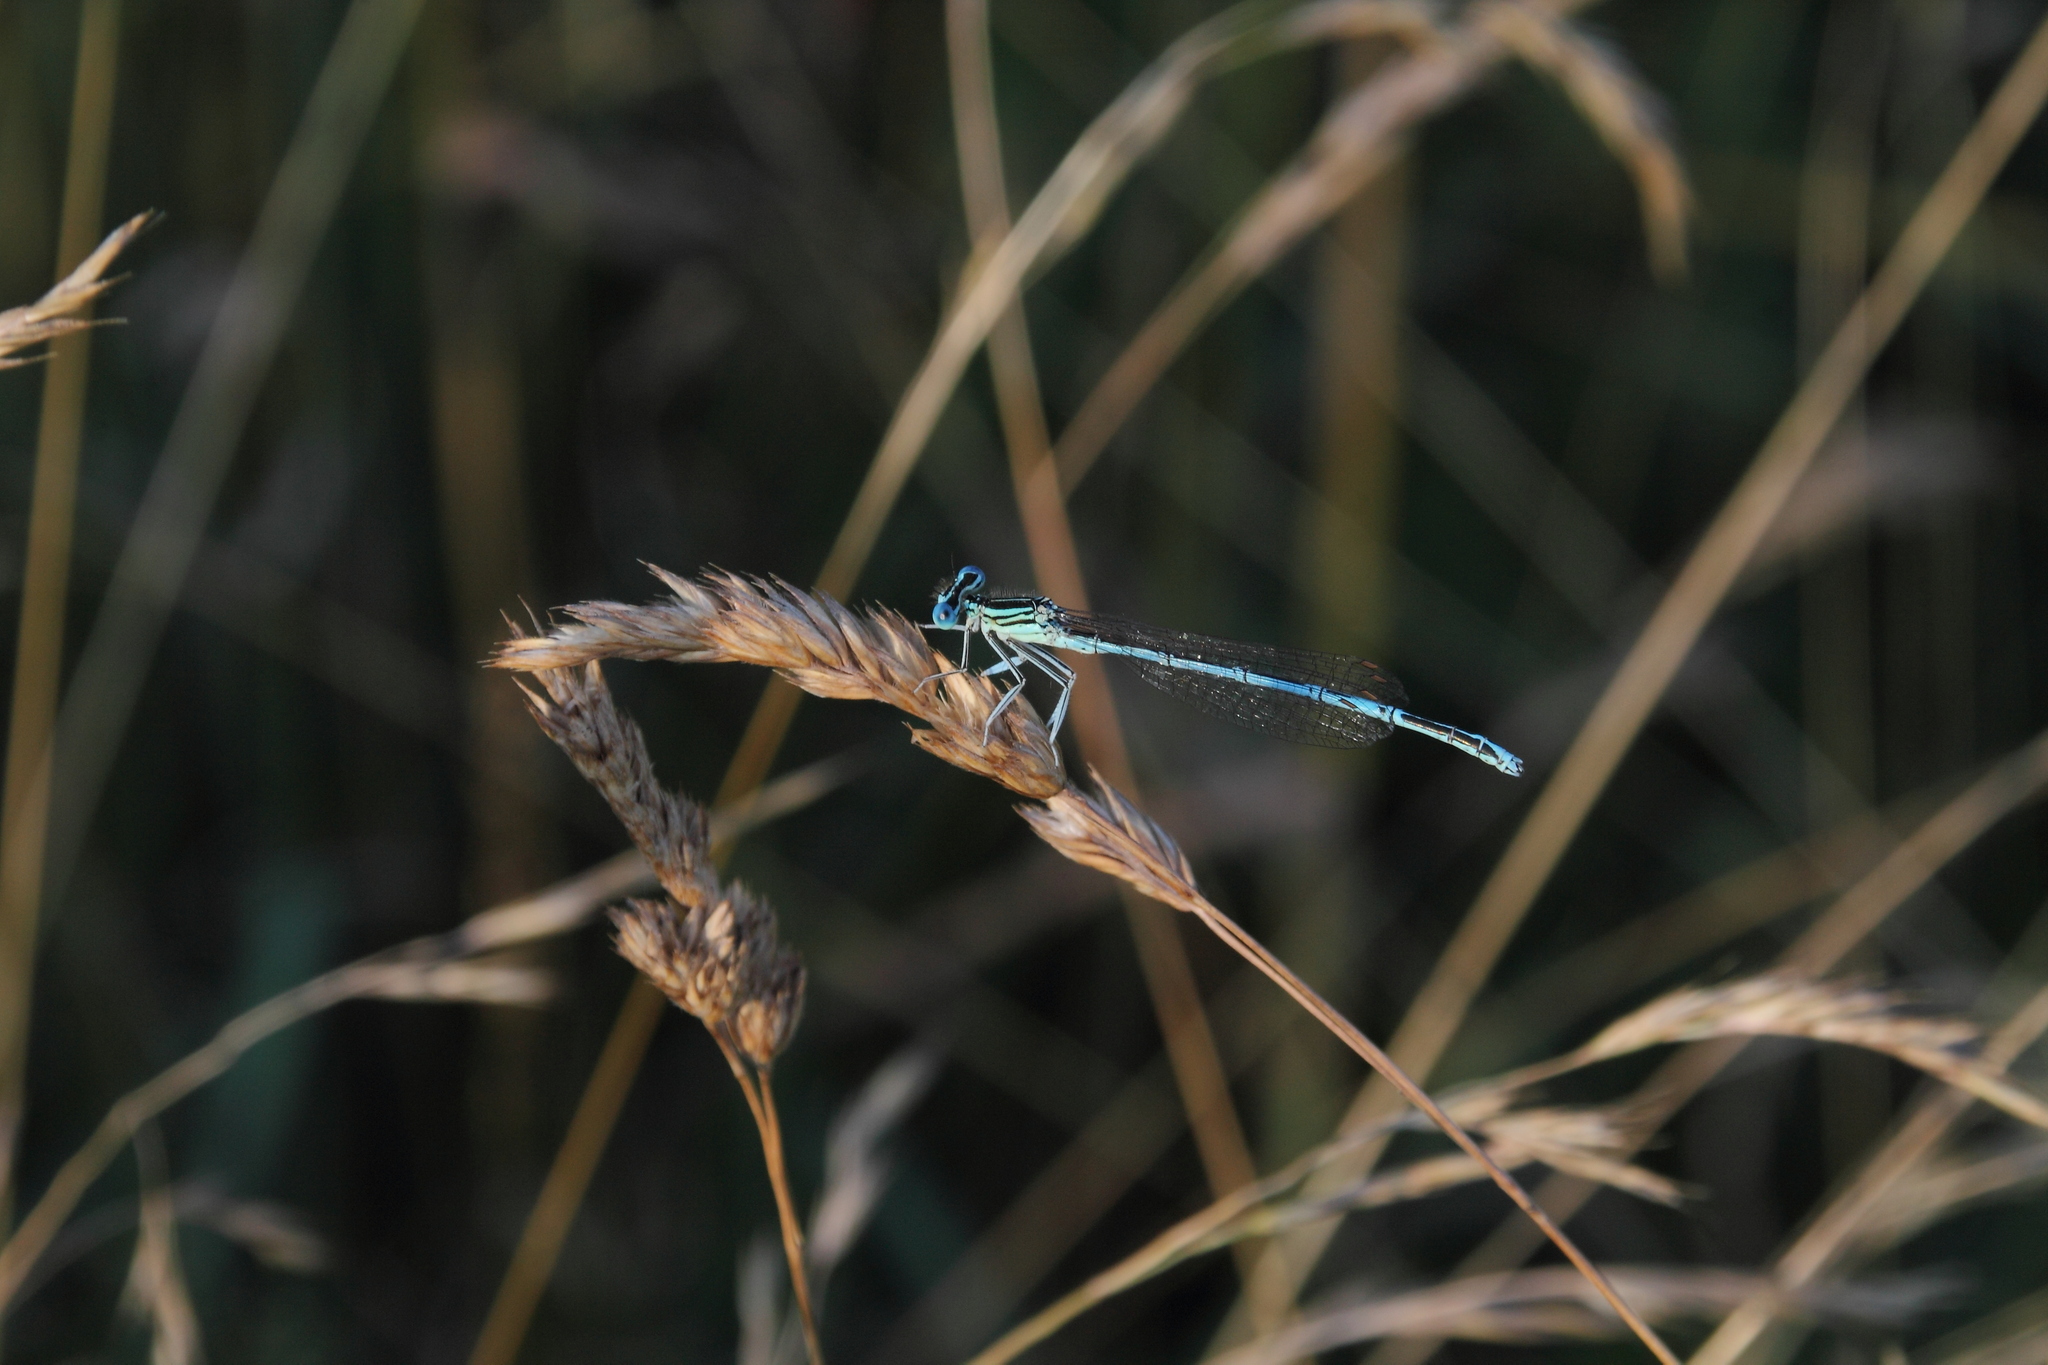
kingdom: Animalia
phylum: Arthropoda
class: Insecta
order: Odonata
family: Platycnemididae
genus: Platycnemis
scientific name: Platycnemis pennipes
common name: White-legged damselfly
